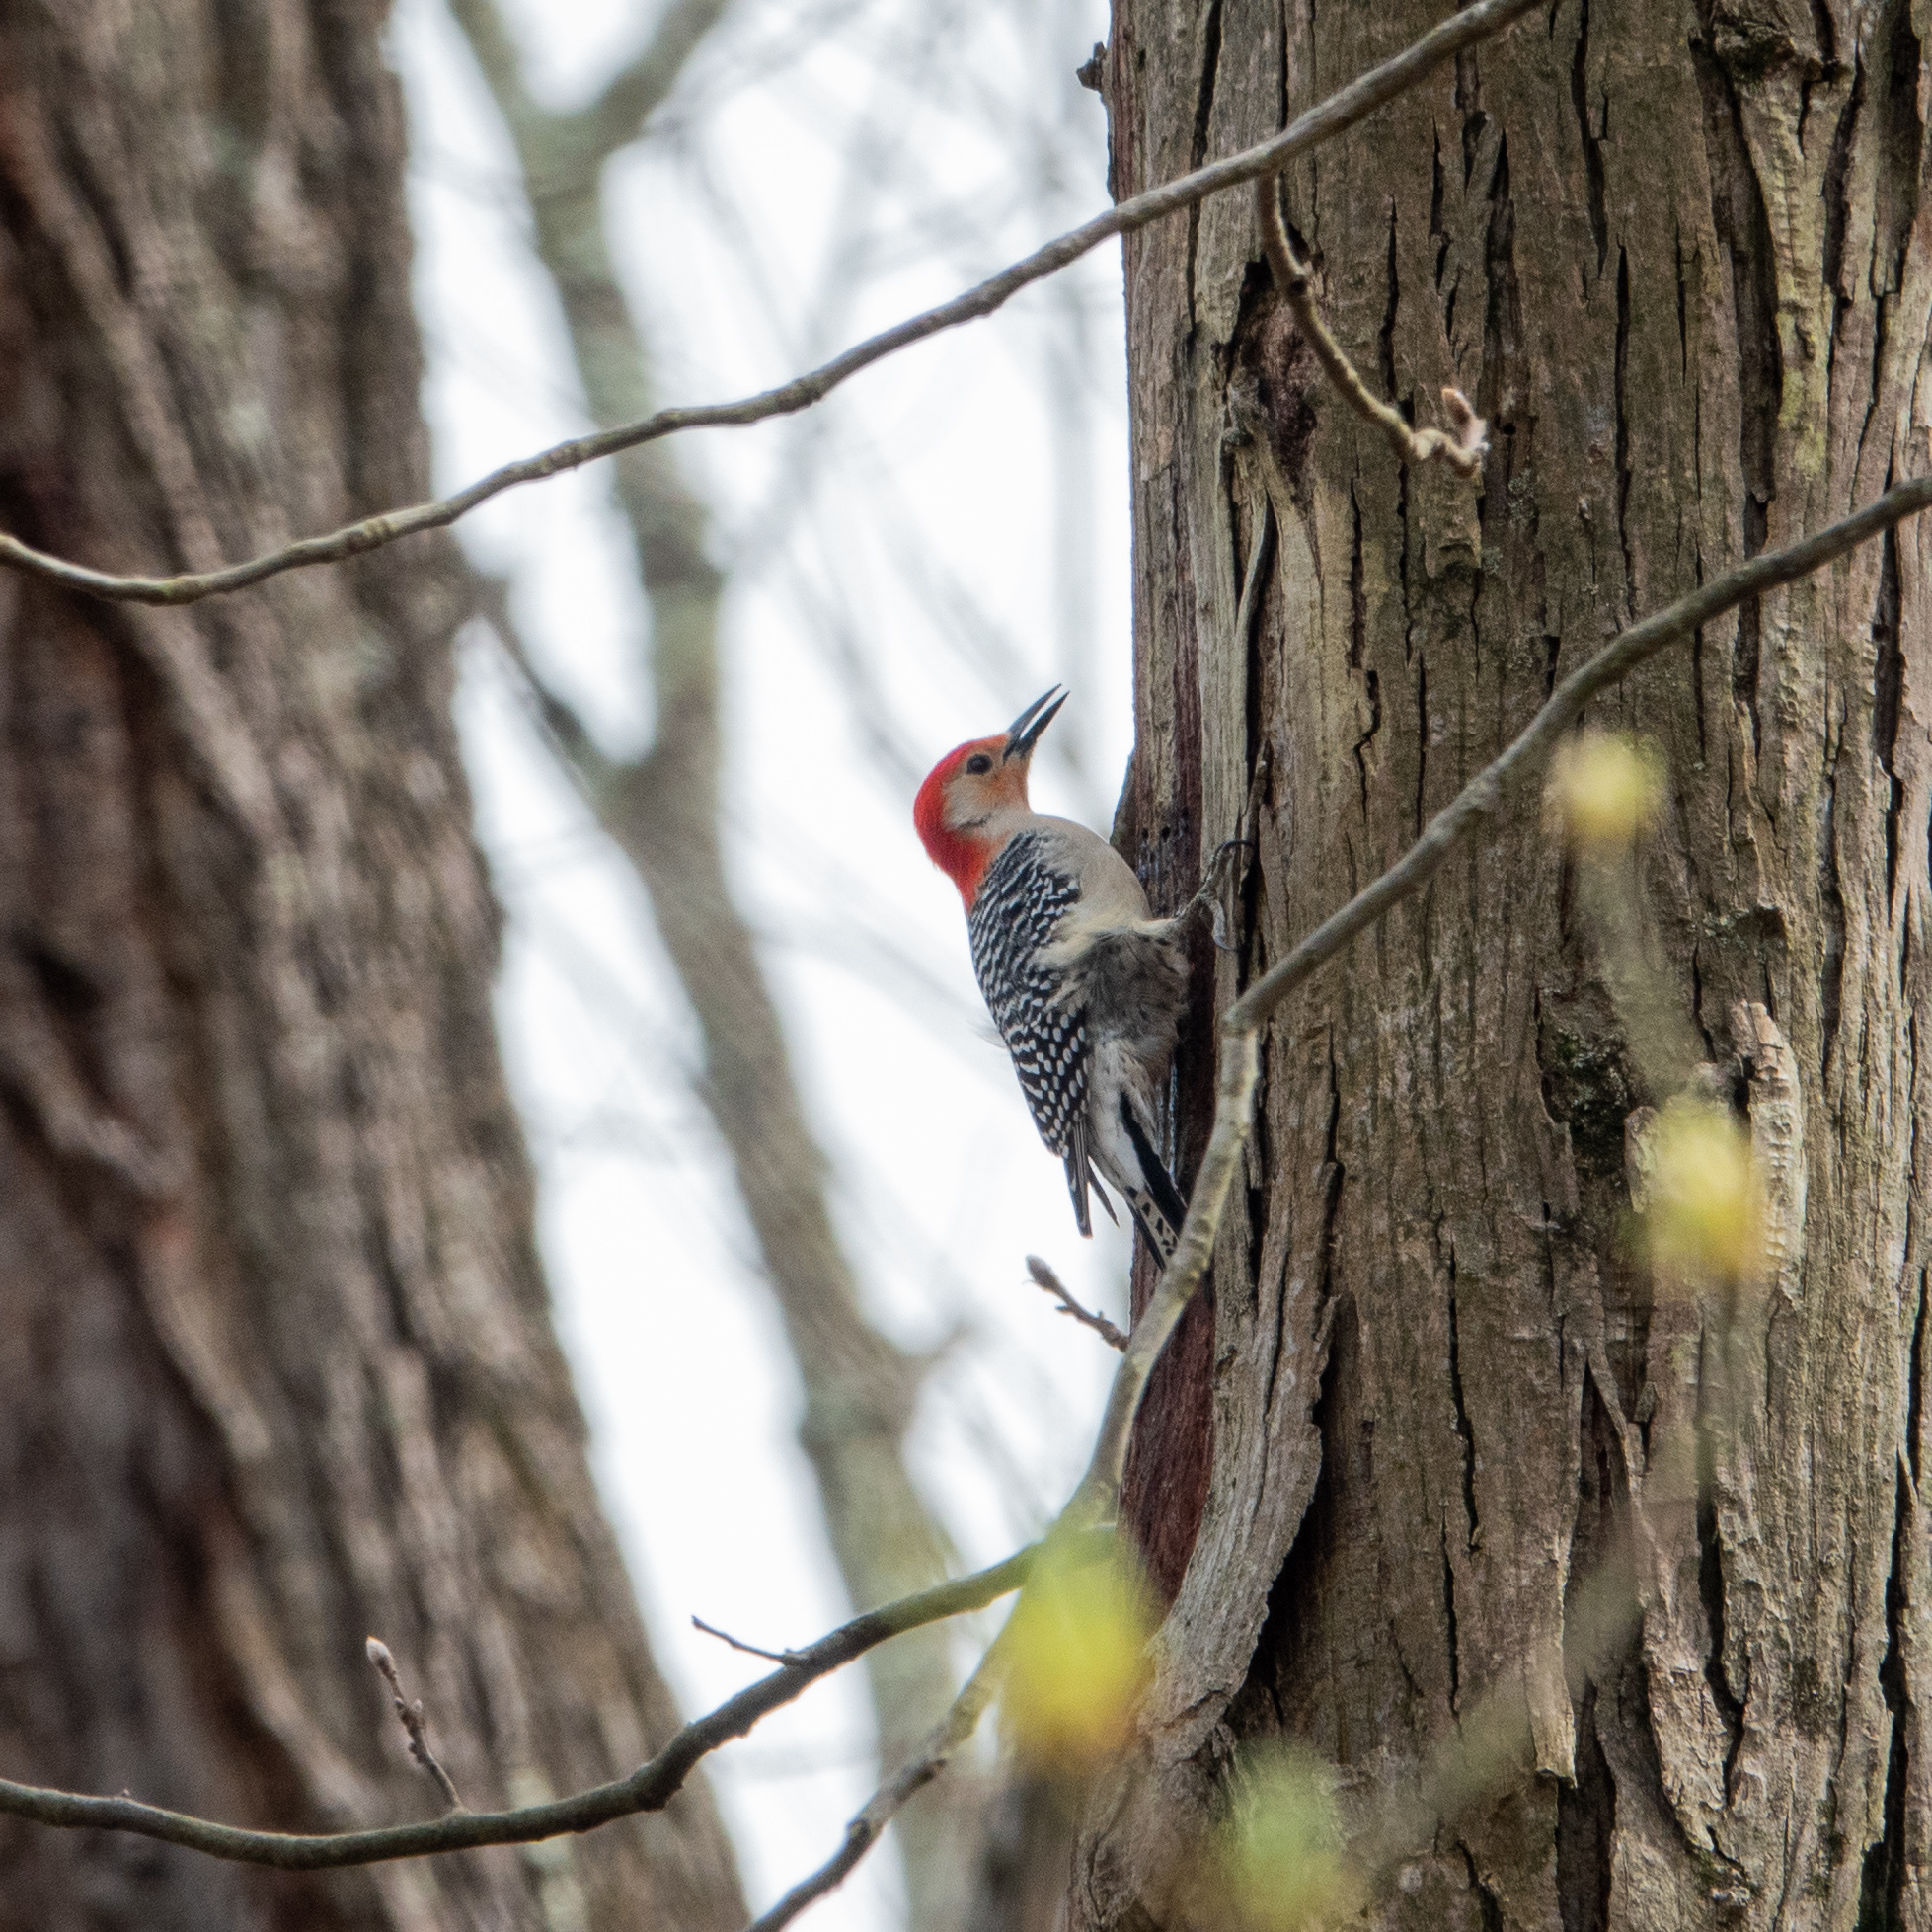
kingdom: Animalia
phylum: Chordata
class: Aves
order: Piciformes
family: Picidae
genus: Melanerpes
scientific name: Melanerpes carolinus
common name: Red-bellied woodpecker
